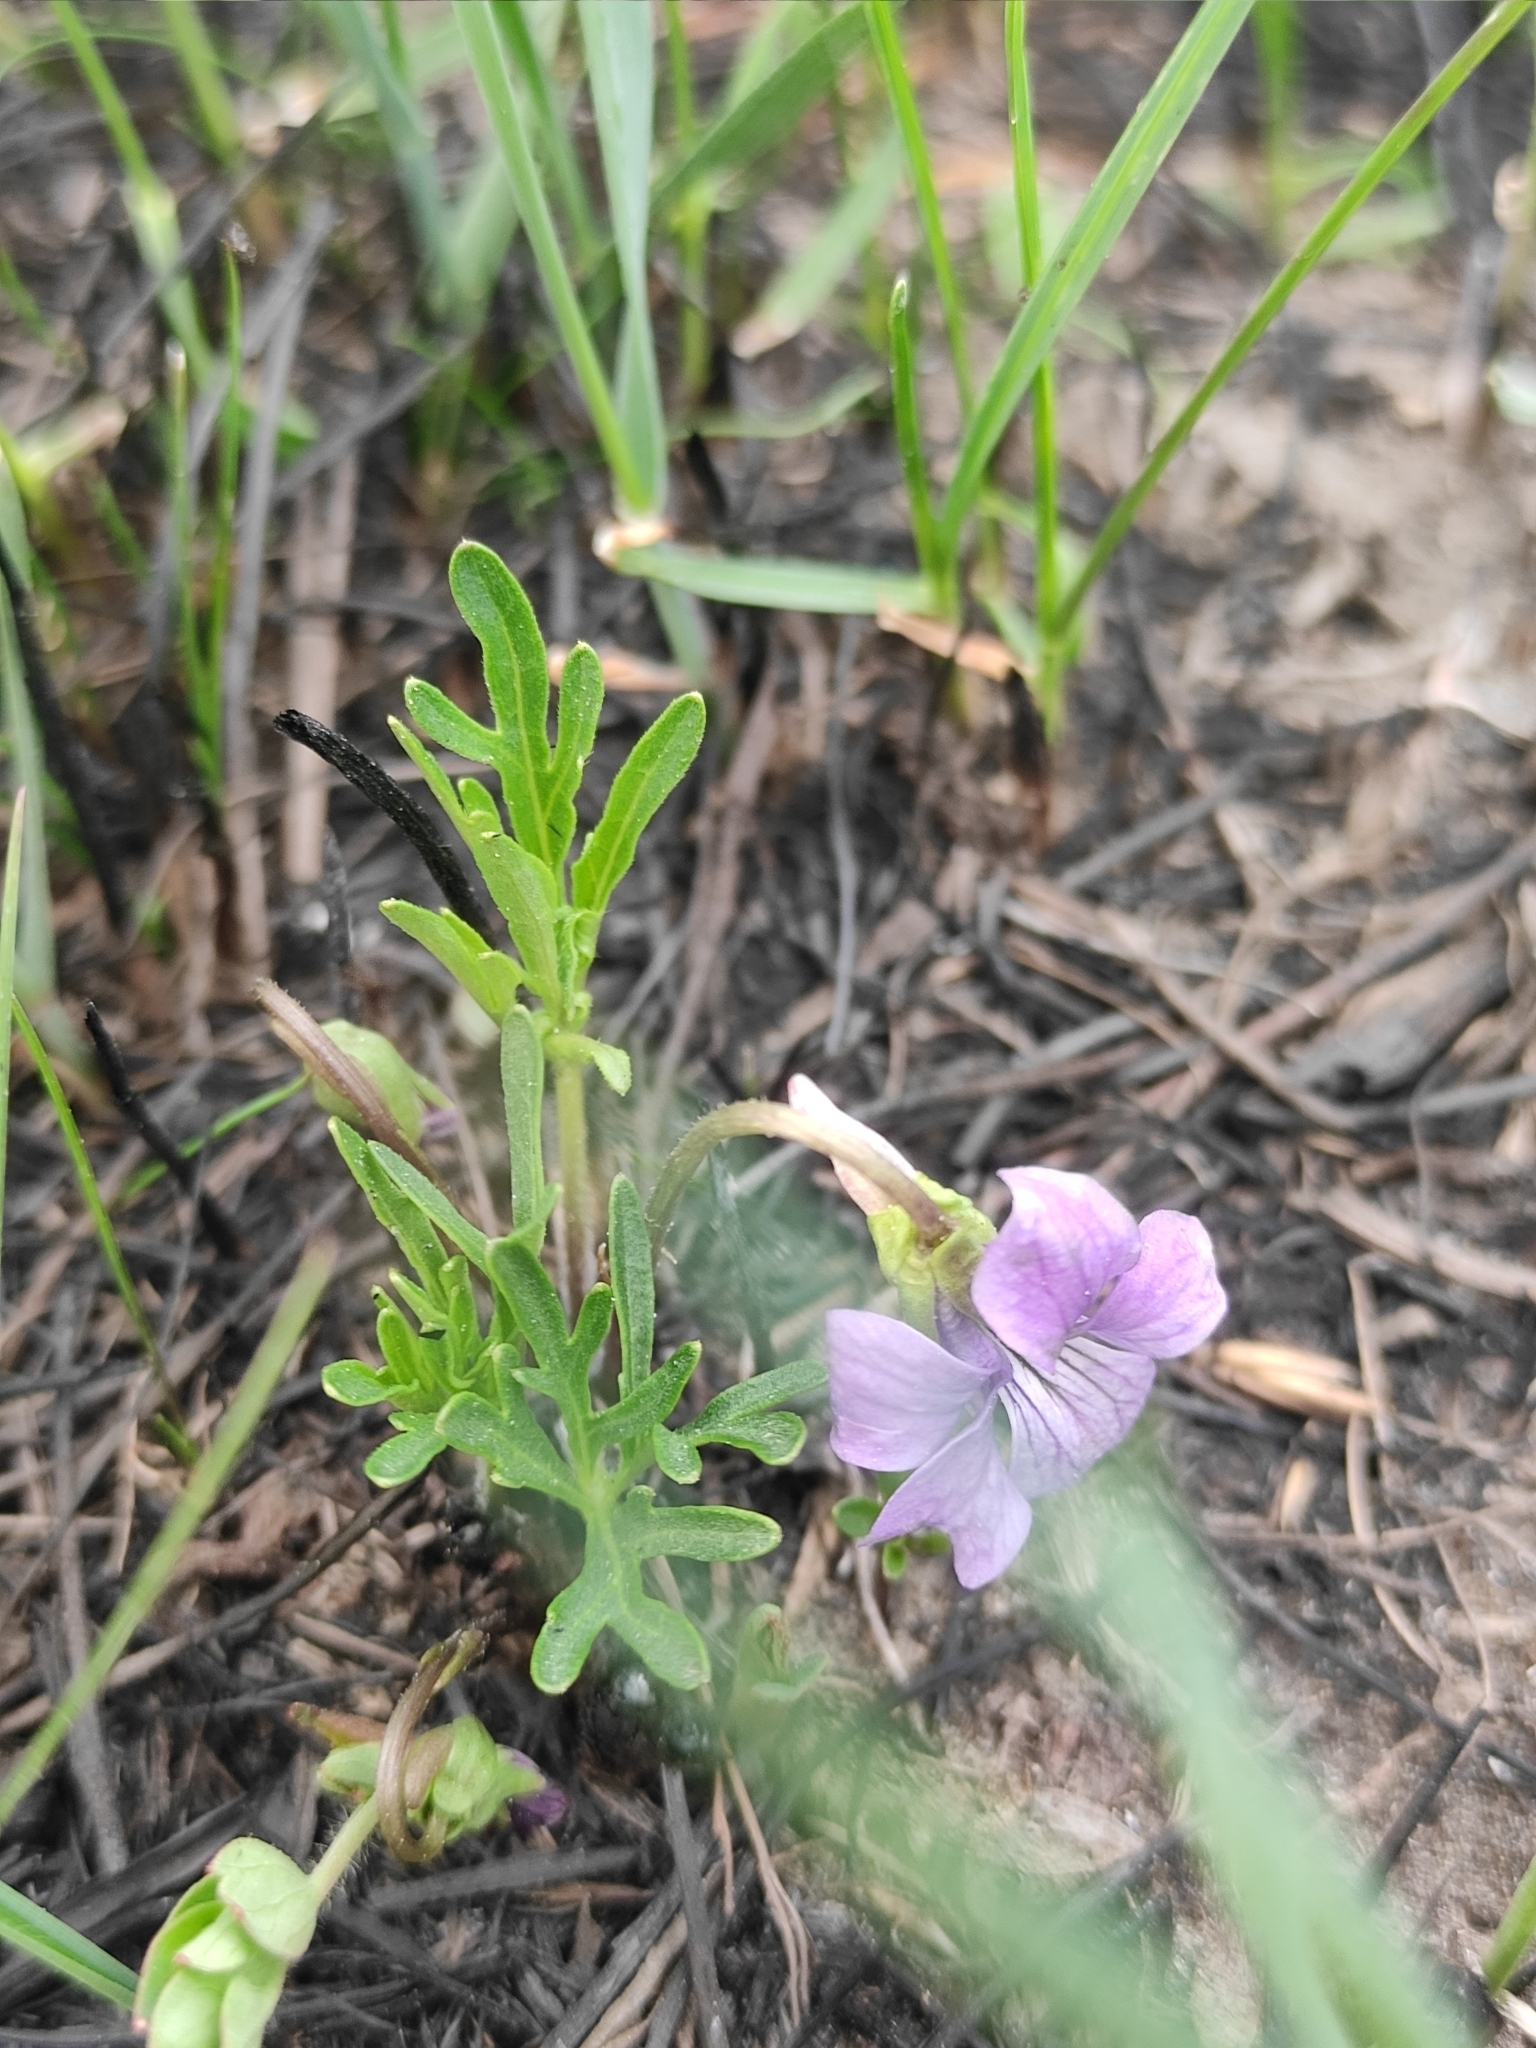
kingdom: Plantae
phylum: Tracheophyta
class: Magnoliopsida
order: Malpighiales
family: Violaceae
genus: Viola
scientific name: Viola multifida
